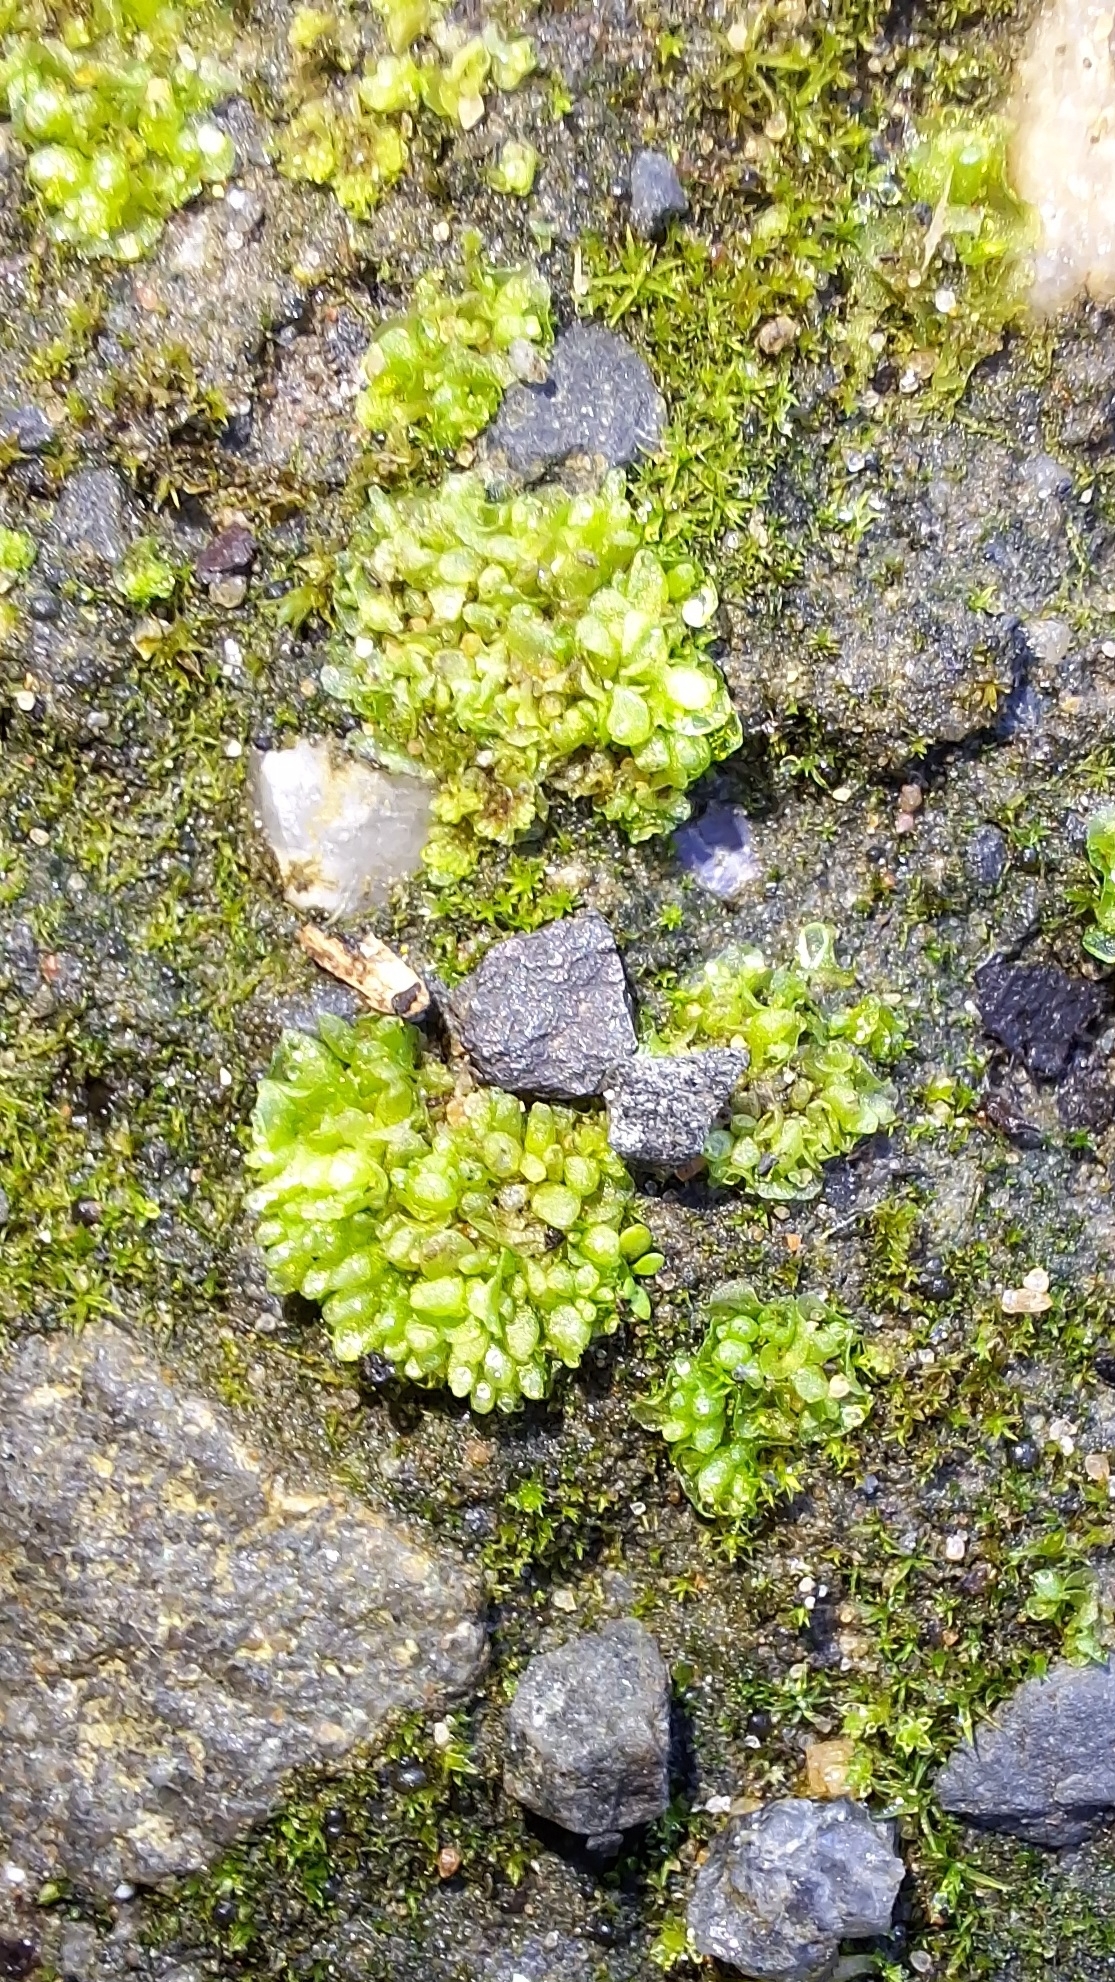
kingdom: Plantae
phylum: Marchantiophyta
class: Marchantiopsida
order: Sphaerocarpales
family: Sphaerocarpaceae
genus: Sphaerocarpos
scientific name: Sphaerocarpos texanus
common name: Texas balloonwort
